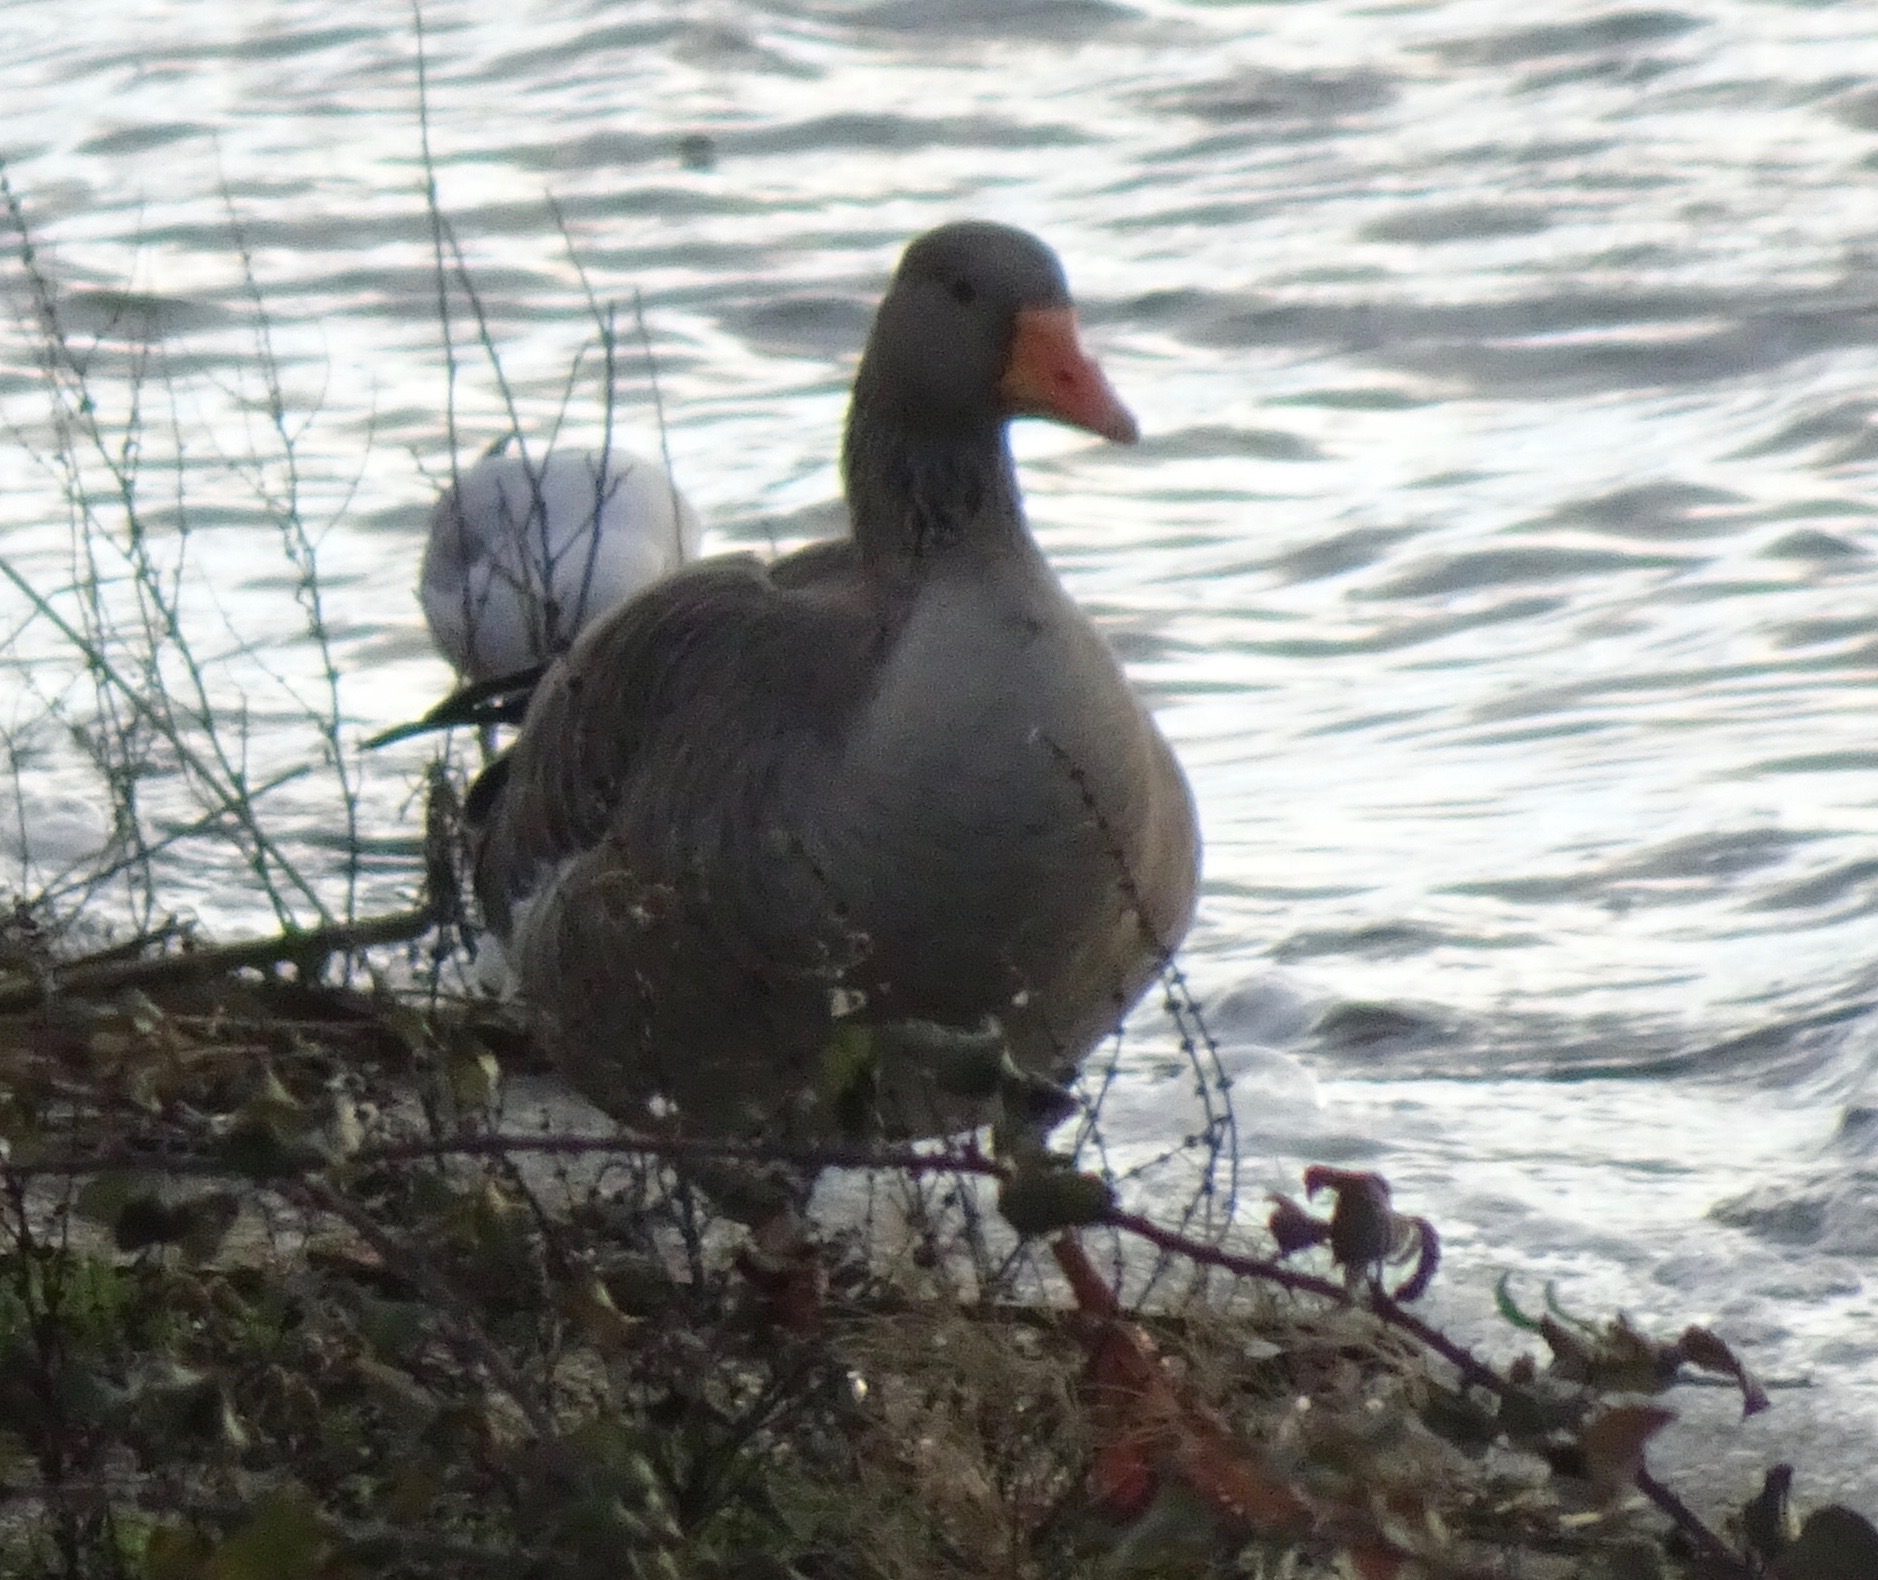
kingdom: Animalia
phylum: Chordata
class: Aves
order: Anseriformes
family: Anatidae
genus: Anser
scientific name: Anser anser
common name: Greylag goose
